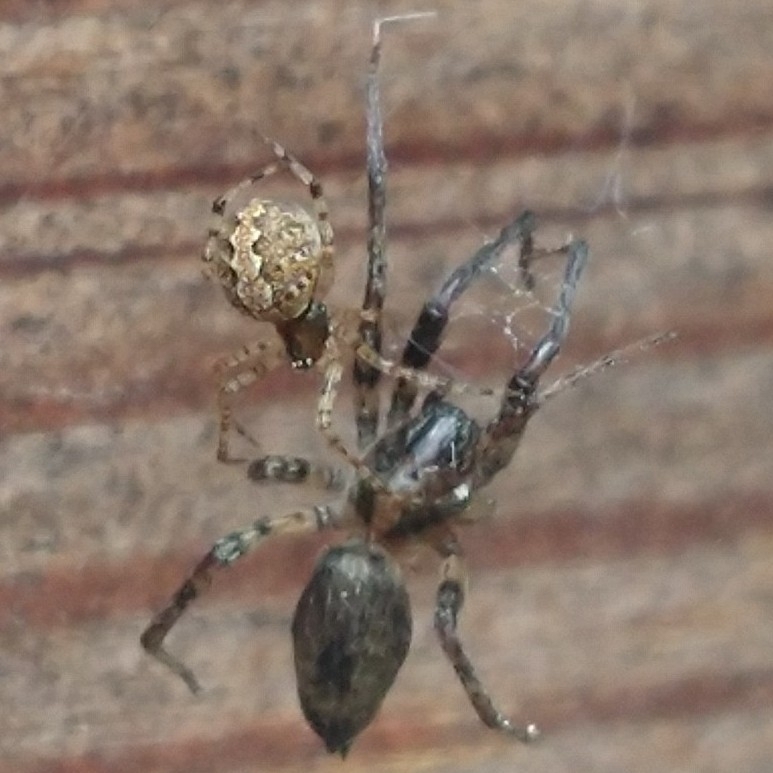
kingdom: Animalia
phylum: Arthropoda
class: Arachnida
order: Araneae
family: Anyphaenidae
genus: Anyphaena
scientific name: Anyphaena accentuata
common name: Buzzing spider
